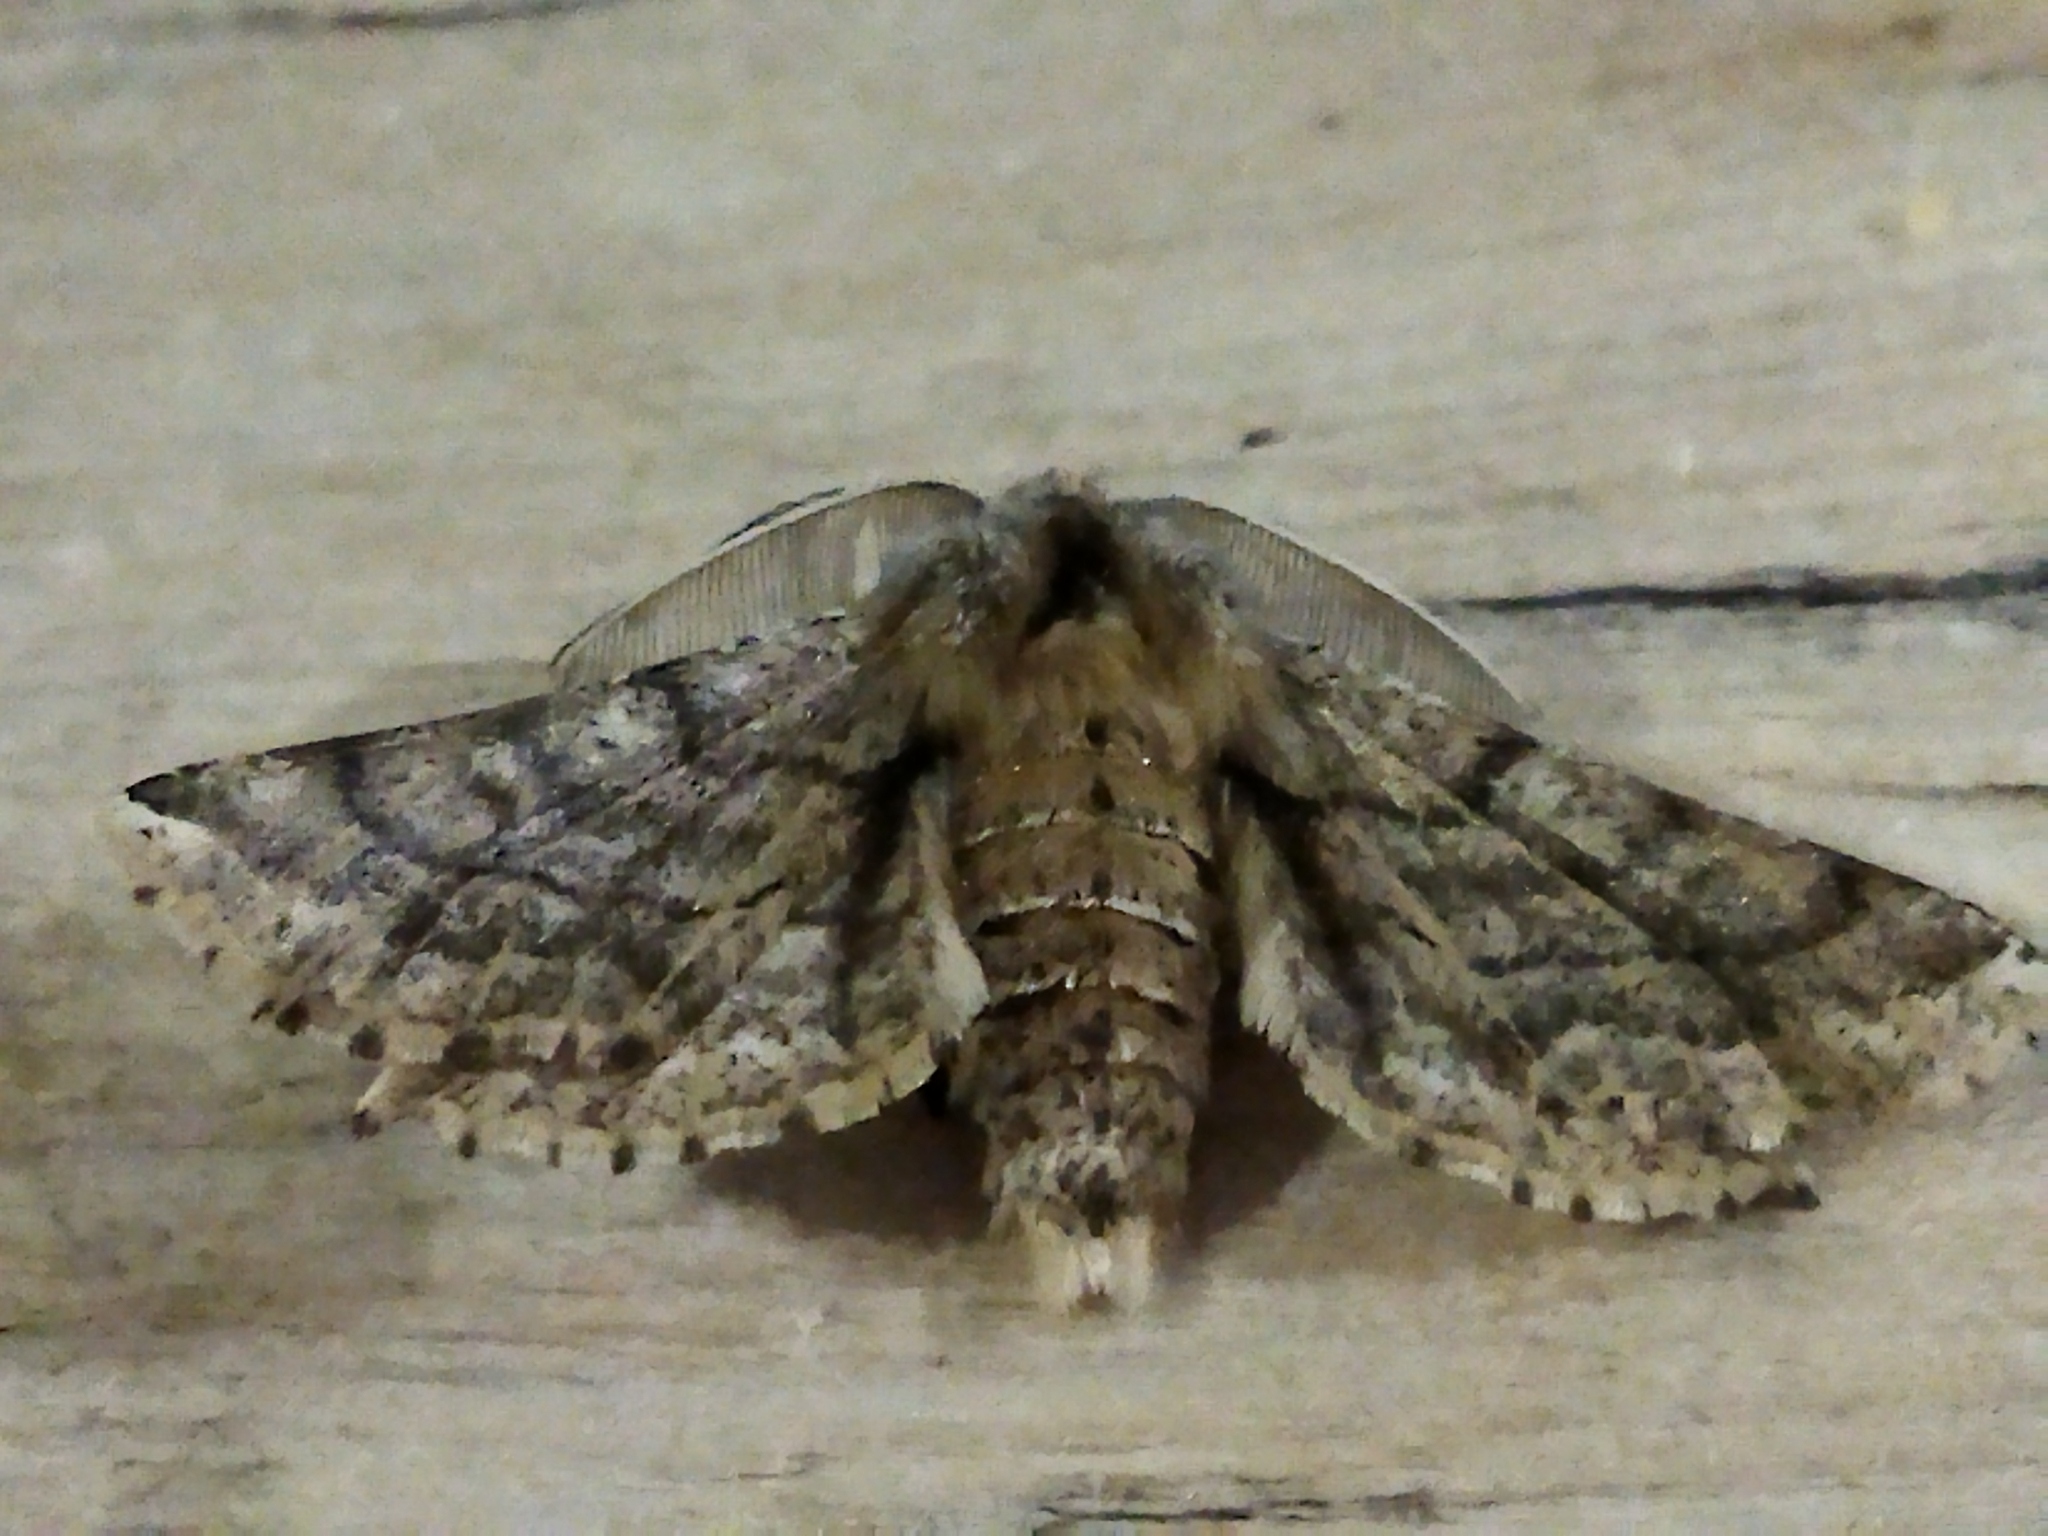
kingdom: Animalia
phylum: Arthropoda
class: Insecta
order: Lepidoptera
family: Geometridae
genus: Apochima
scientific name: Apochima flabellaria
